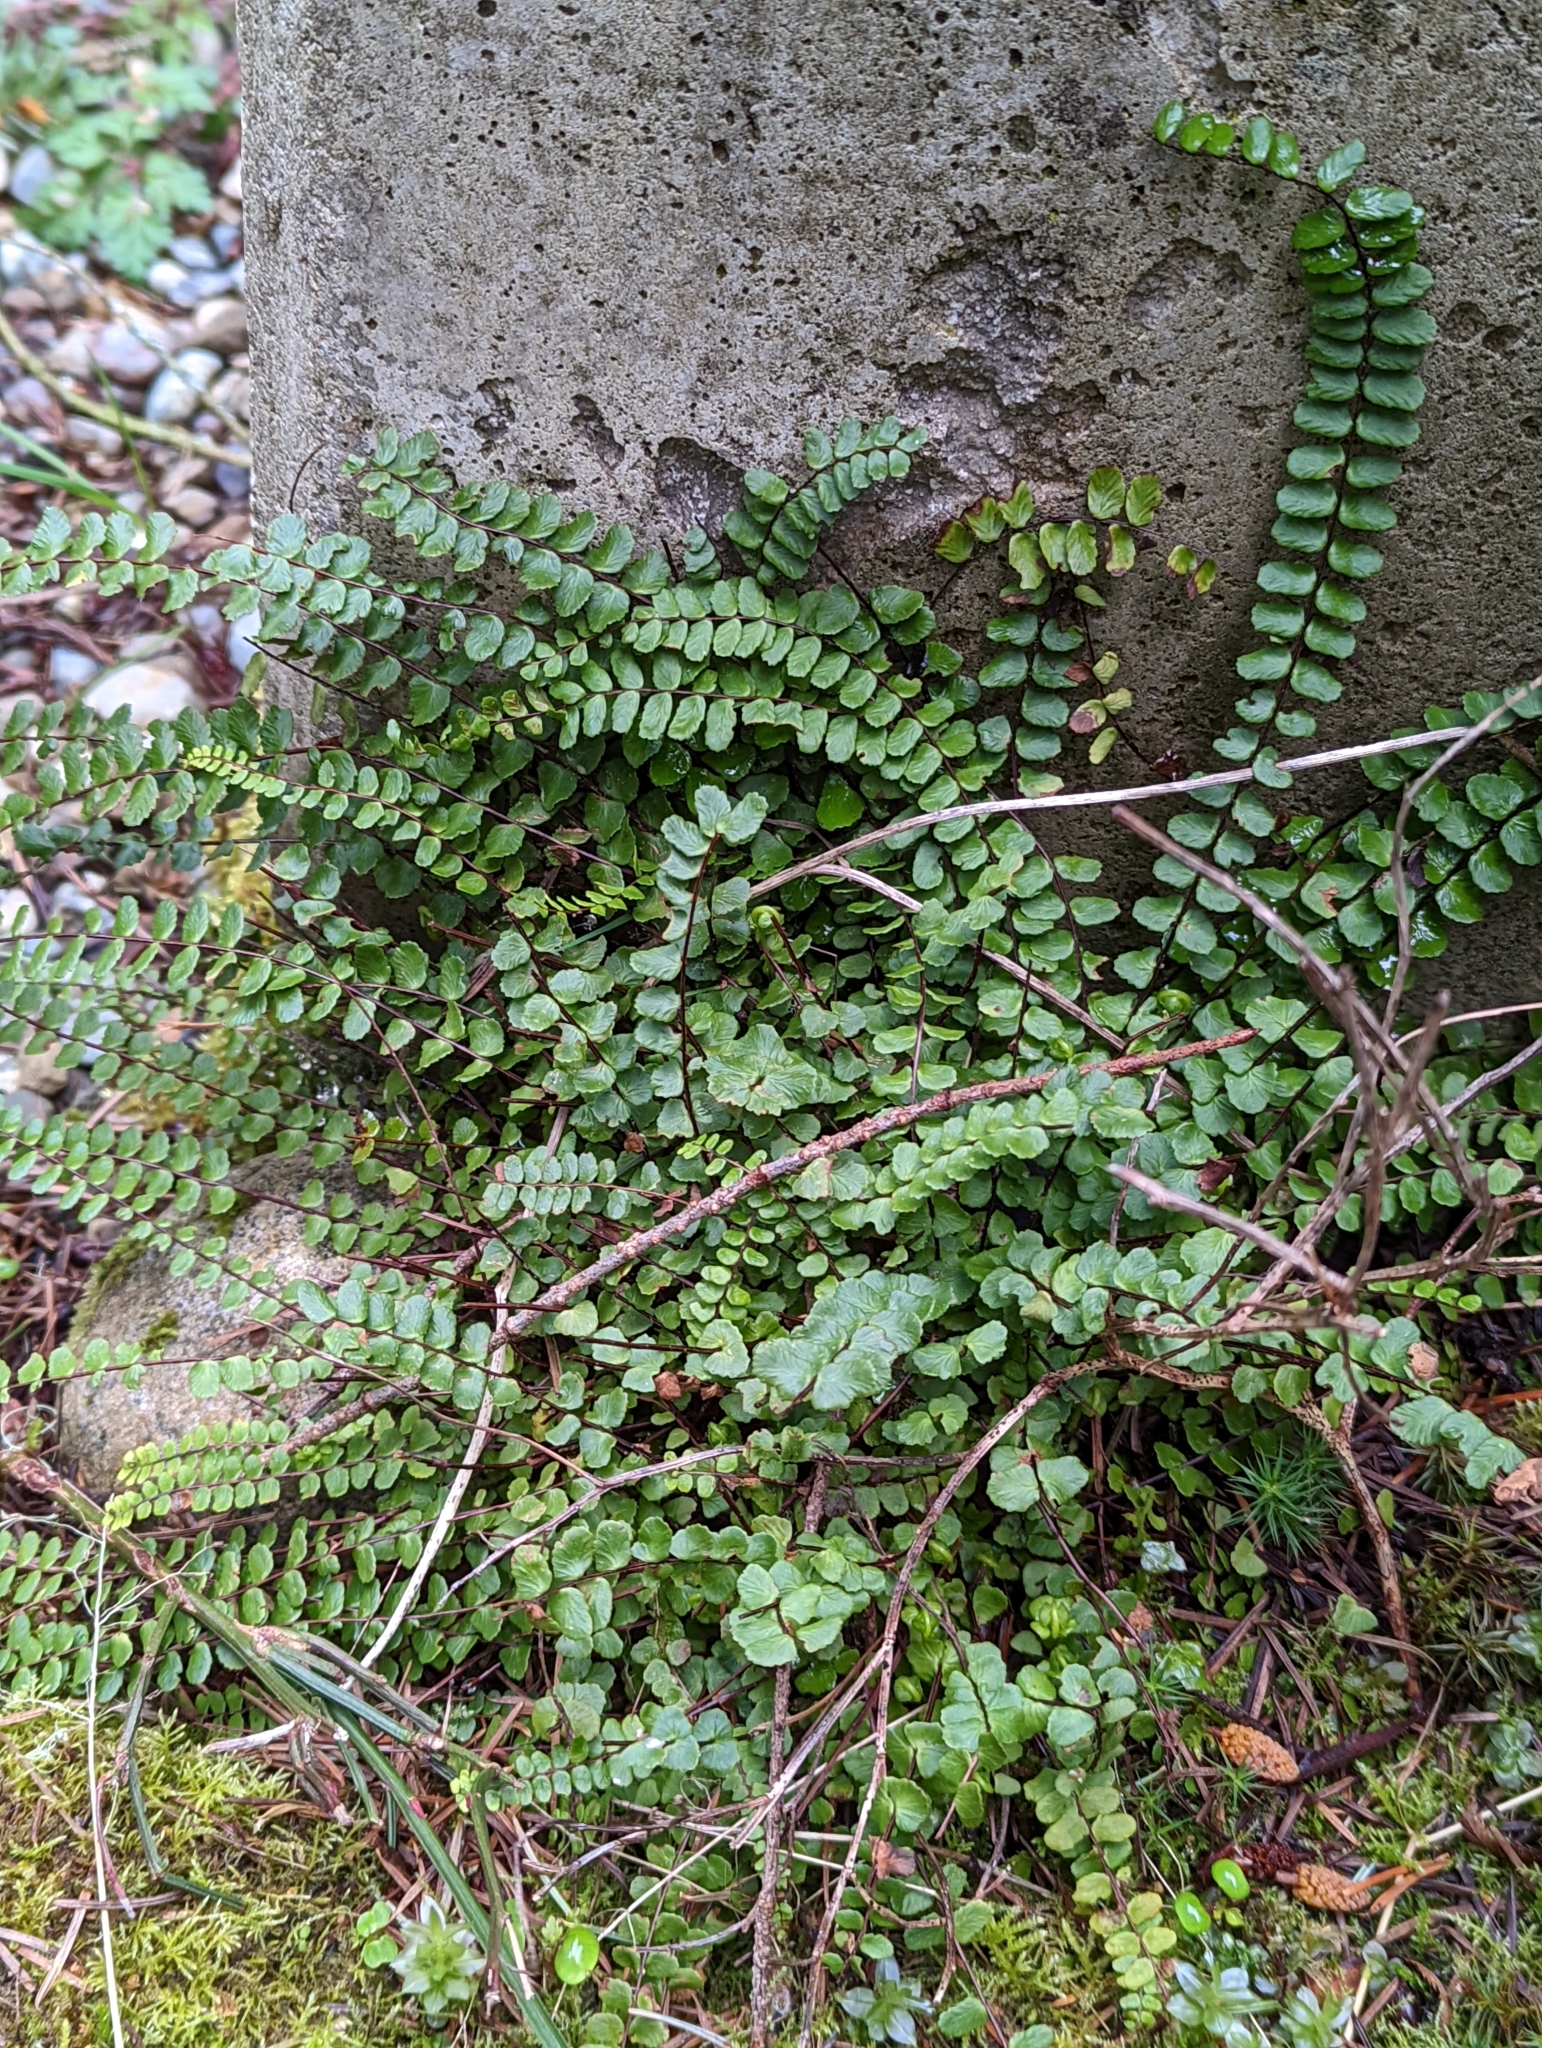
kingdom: Plantae
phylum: Tracheophyta
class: Polypodiopsida
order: Polypodiales
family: Aspleniaceae
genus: Asplenium
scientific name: Asplenium trichomanes
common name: Maidenhair spleenwort
